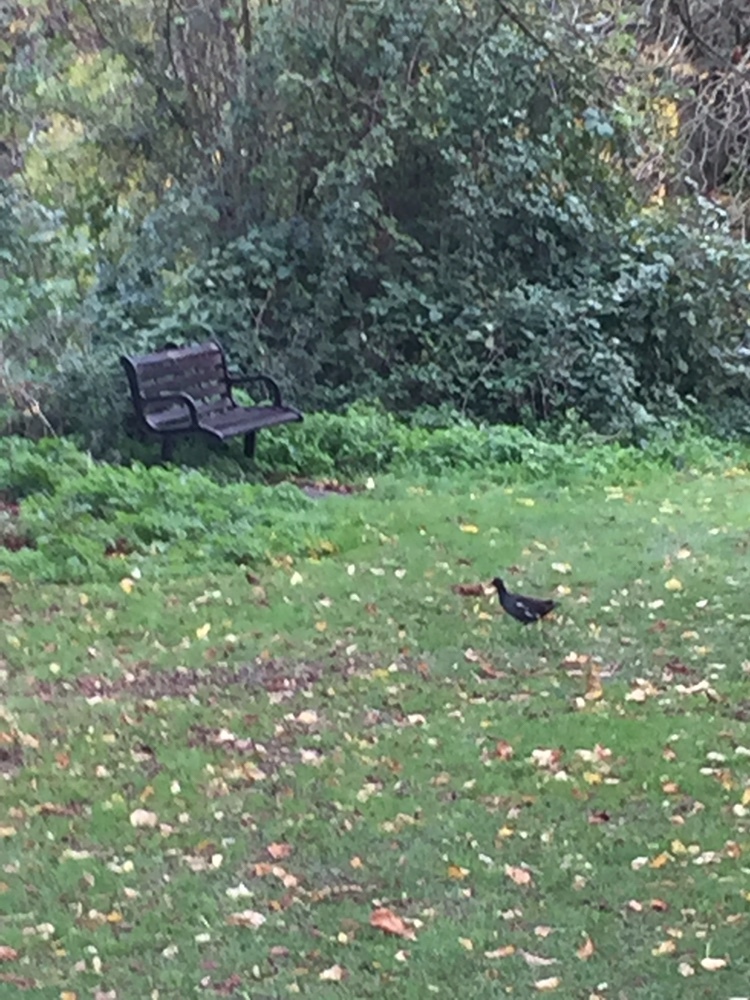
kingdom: Animalia
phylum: Chordata
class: Aves
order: Gruiformes
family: Rallidae
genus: Gallinula
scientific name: Gallinula chloropus
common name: Common moorhen
